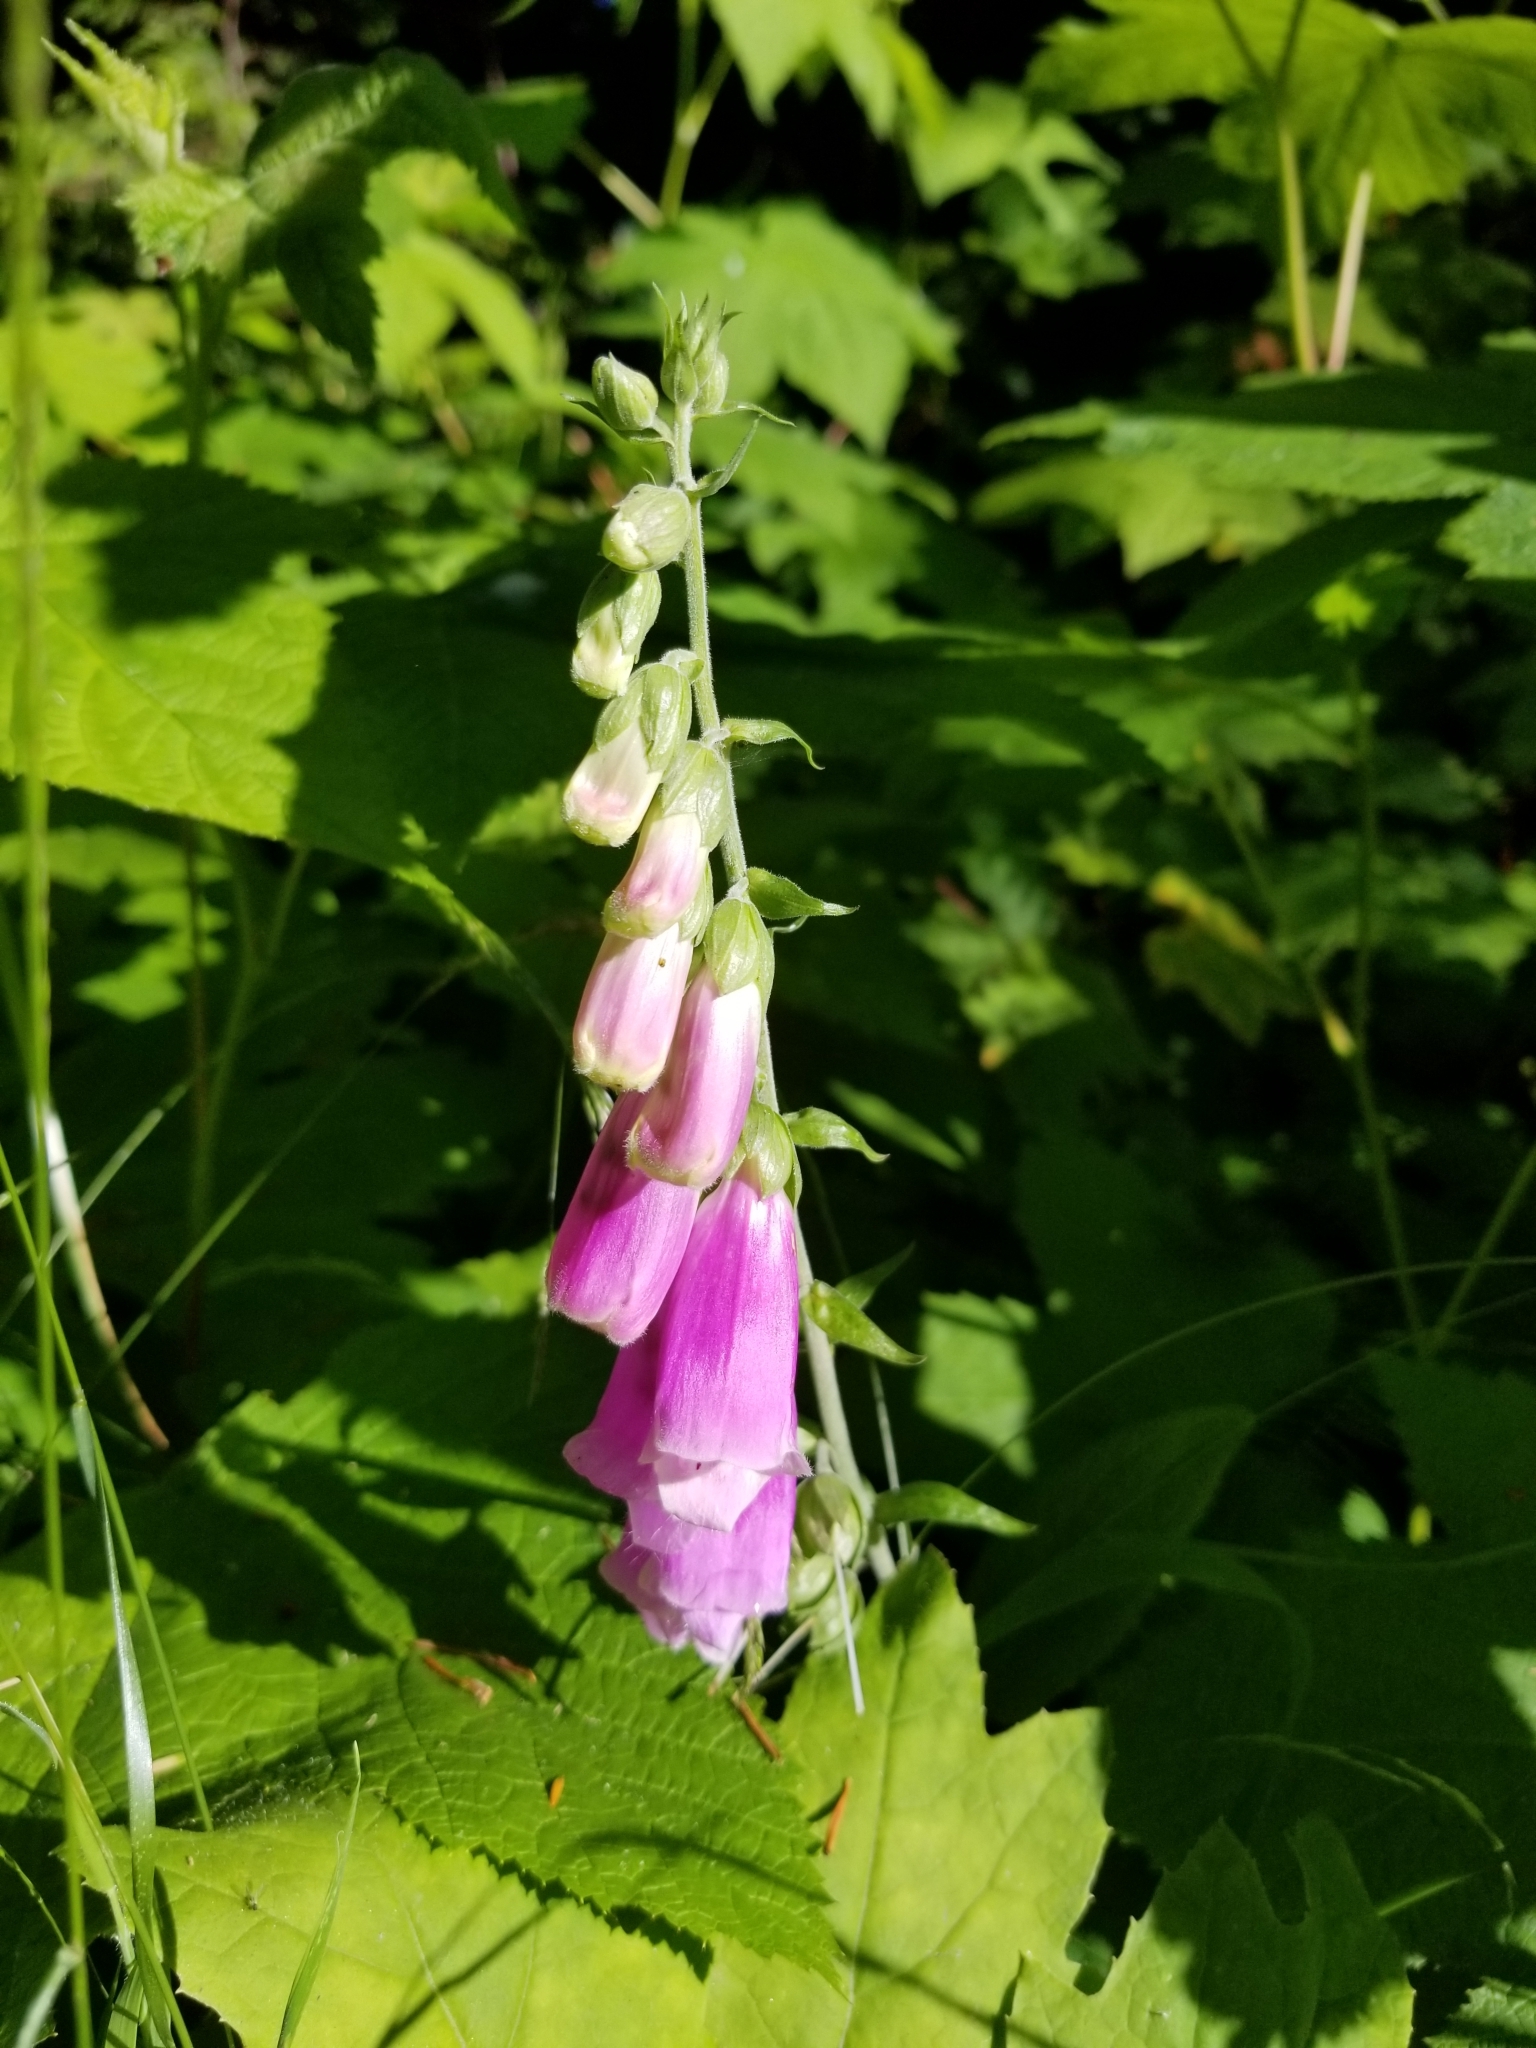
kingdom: Plantae
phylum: Tracheophyta
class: Magnoliopsida
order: Lamiales
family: Plantaginaceae
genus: Digitalis
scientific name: Digitalis purpurea
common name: Foxglove
